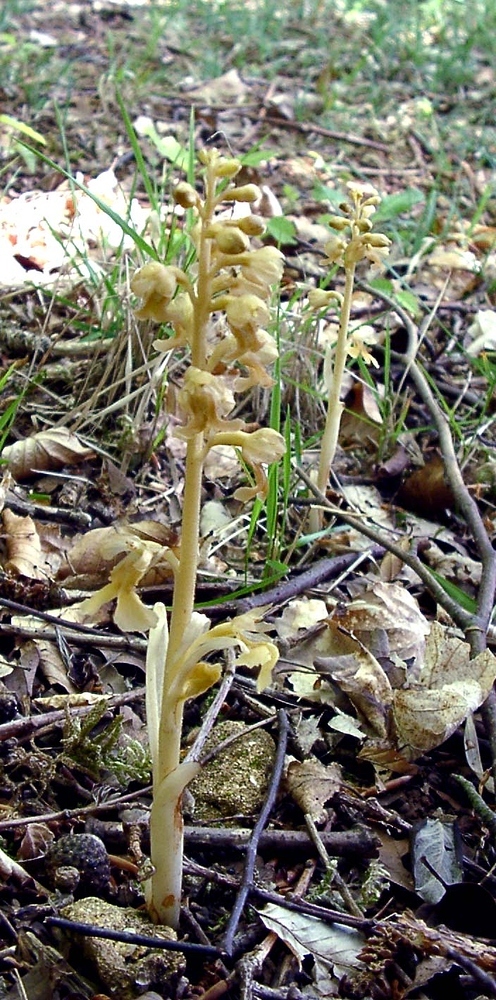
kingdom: Plantae
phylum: Tracheophyta
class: Liliopsida
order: Asparagales
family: Orchidaceae
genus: Neottia
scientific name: Neottia nidus-avis
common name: Bird's-nest orchid
